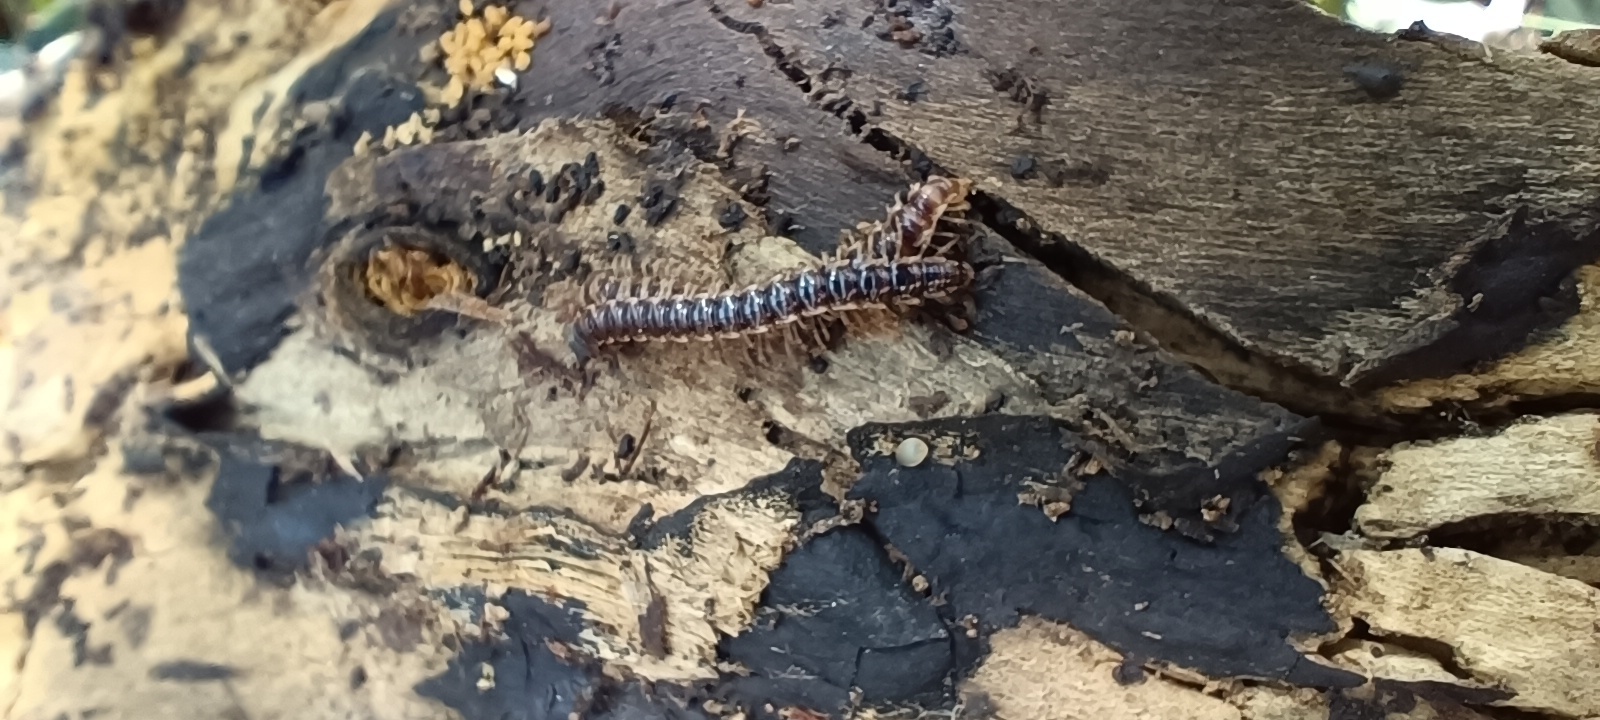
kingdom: Animalia
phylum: Arthropoda
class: Diplopoda
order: Polydesmida
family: Paradoxosomatidae
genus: Oxidus
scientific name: Oxidus gracilis
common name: Greenhouse millipede
